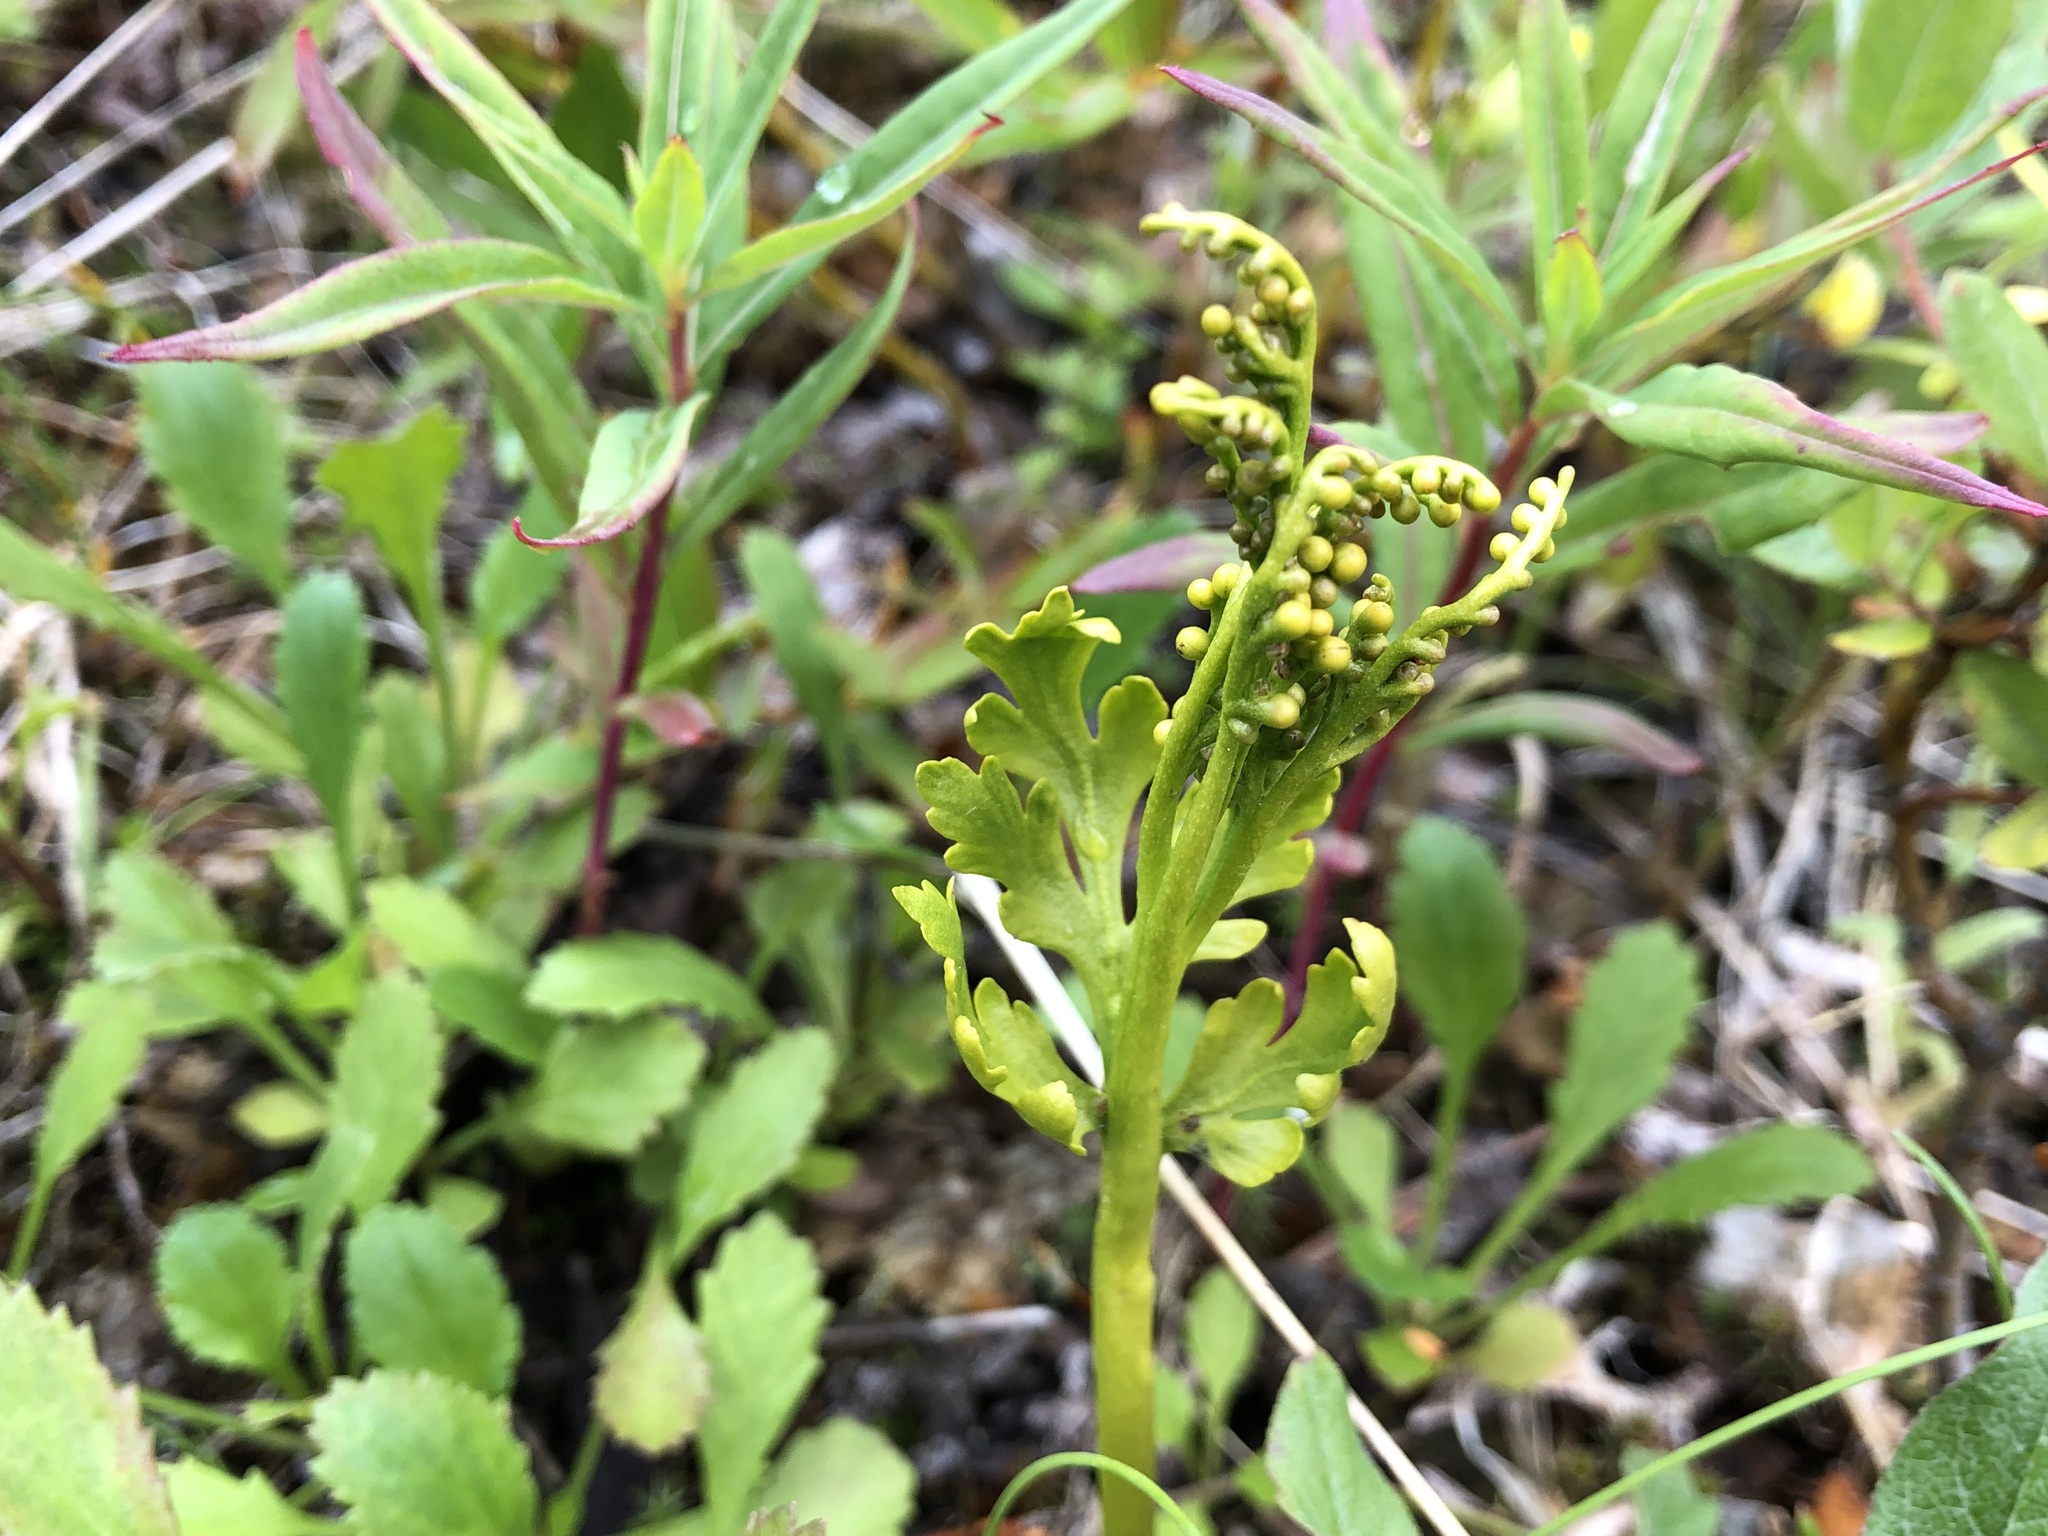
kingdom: Plantae
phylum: Tracheophyta
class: Polypodiopsida
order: Ophioglossales
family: Ophioglossaceae
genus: Botrychium
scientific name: Botrychium lanceolatum
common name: Lance-leaved moonwort
